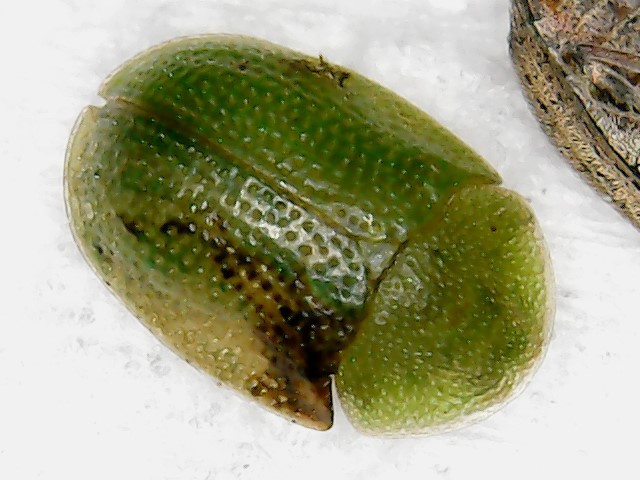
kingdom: Animalia
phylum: Arthropoda
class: Insecta
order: Coleoptera
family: Chrysomelidae
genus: Cassida
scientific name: Cassida pusilla
